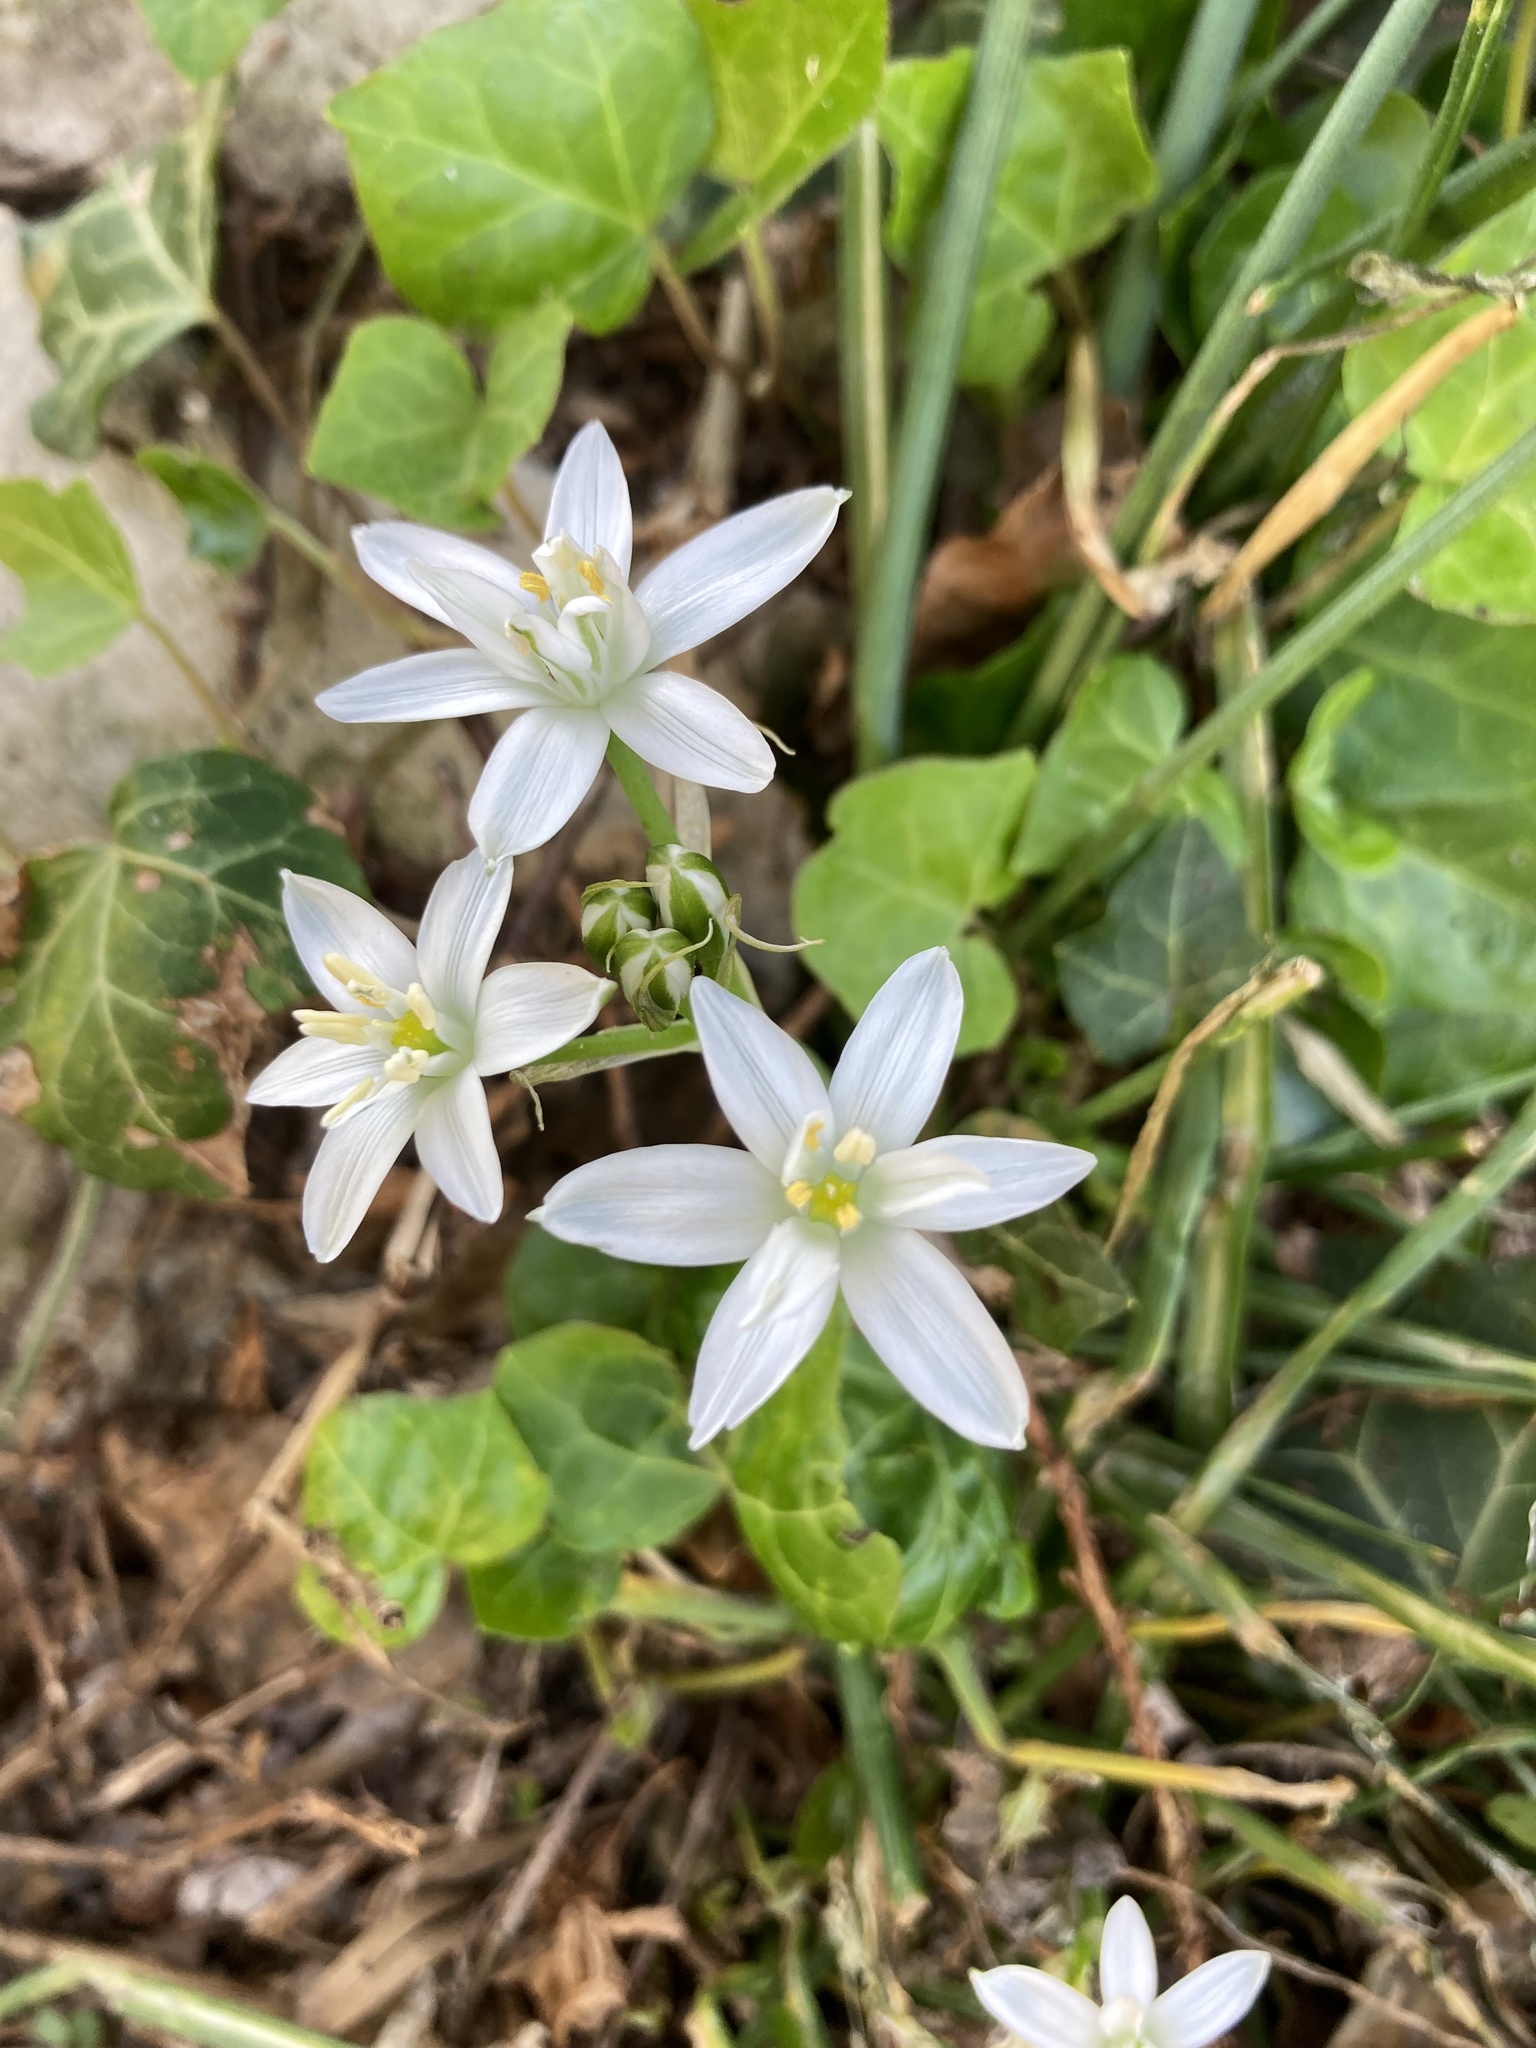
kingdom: Plantae
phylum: Tracheophyta
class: Liliopsida
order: Asparagales
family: Asparagaceae
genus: Ornithogalum
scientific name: Ornithogalum umbellatum
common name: Garden star-of-bethlehem
